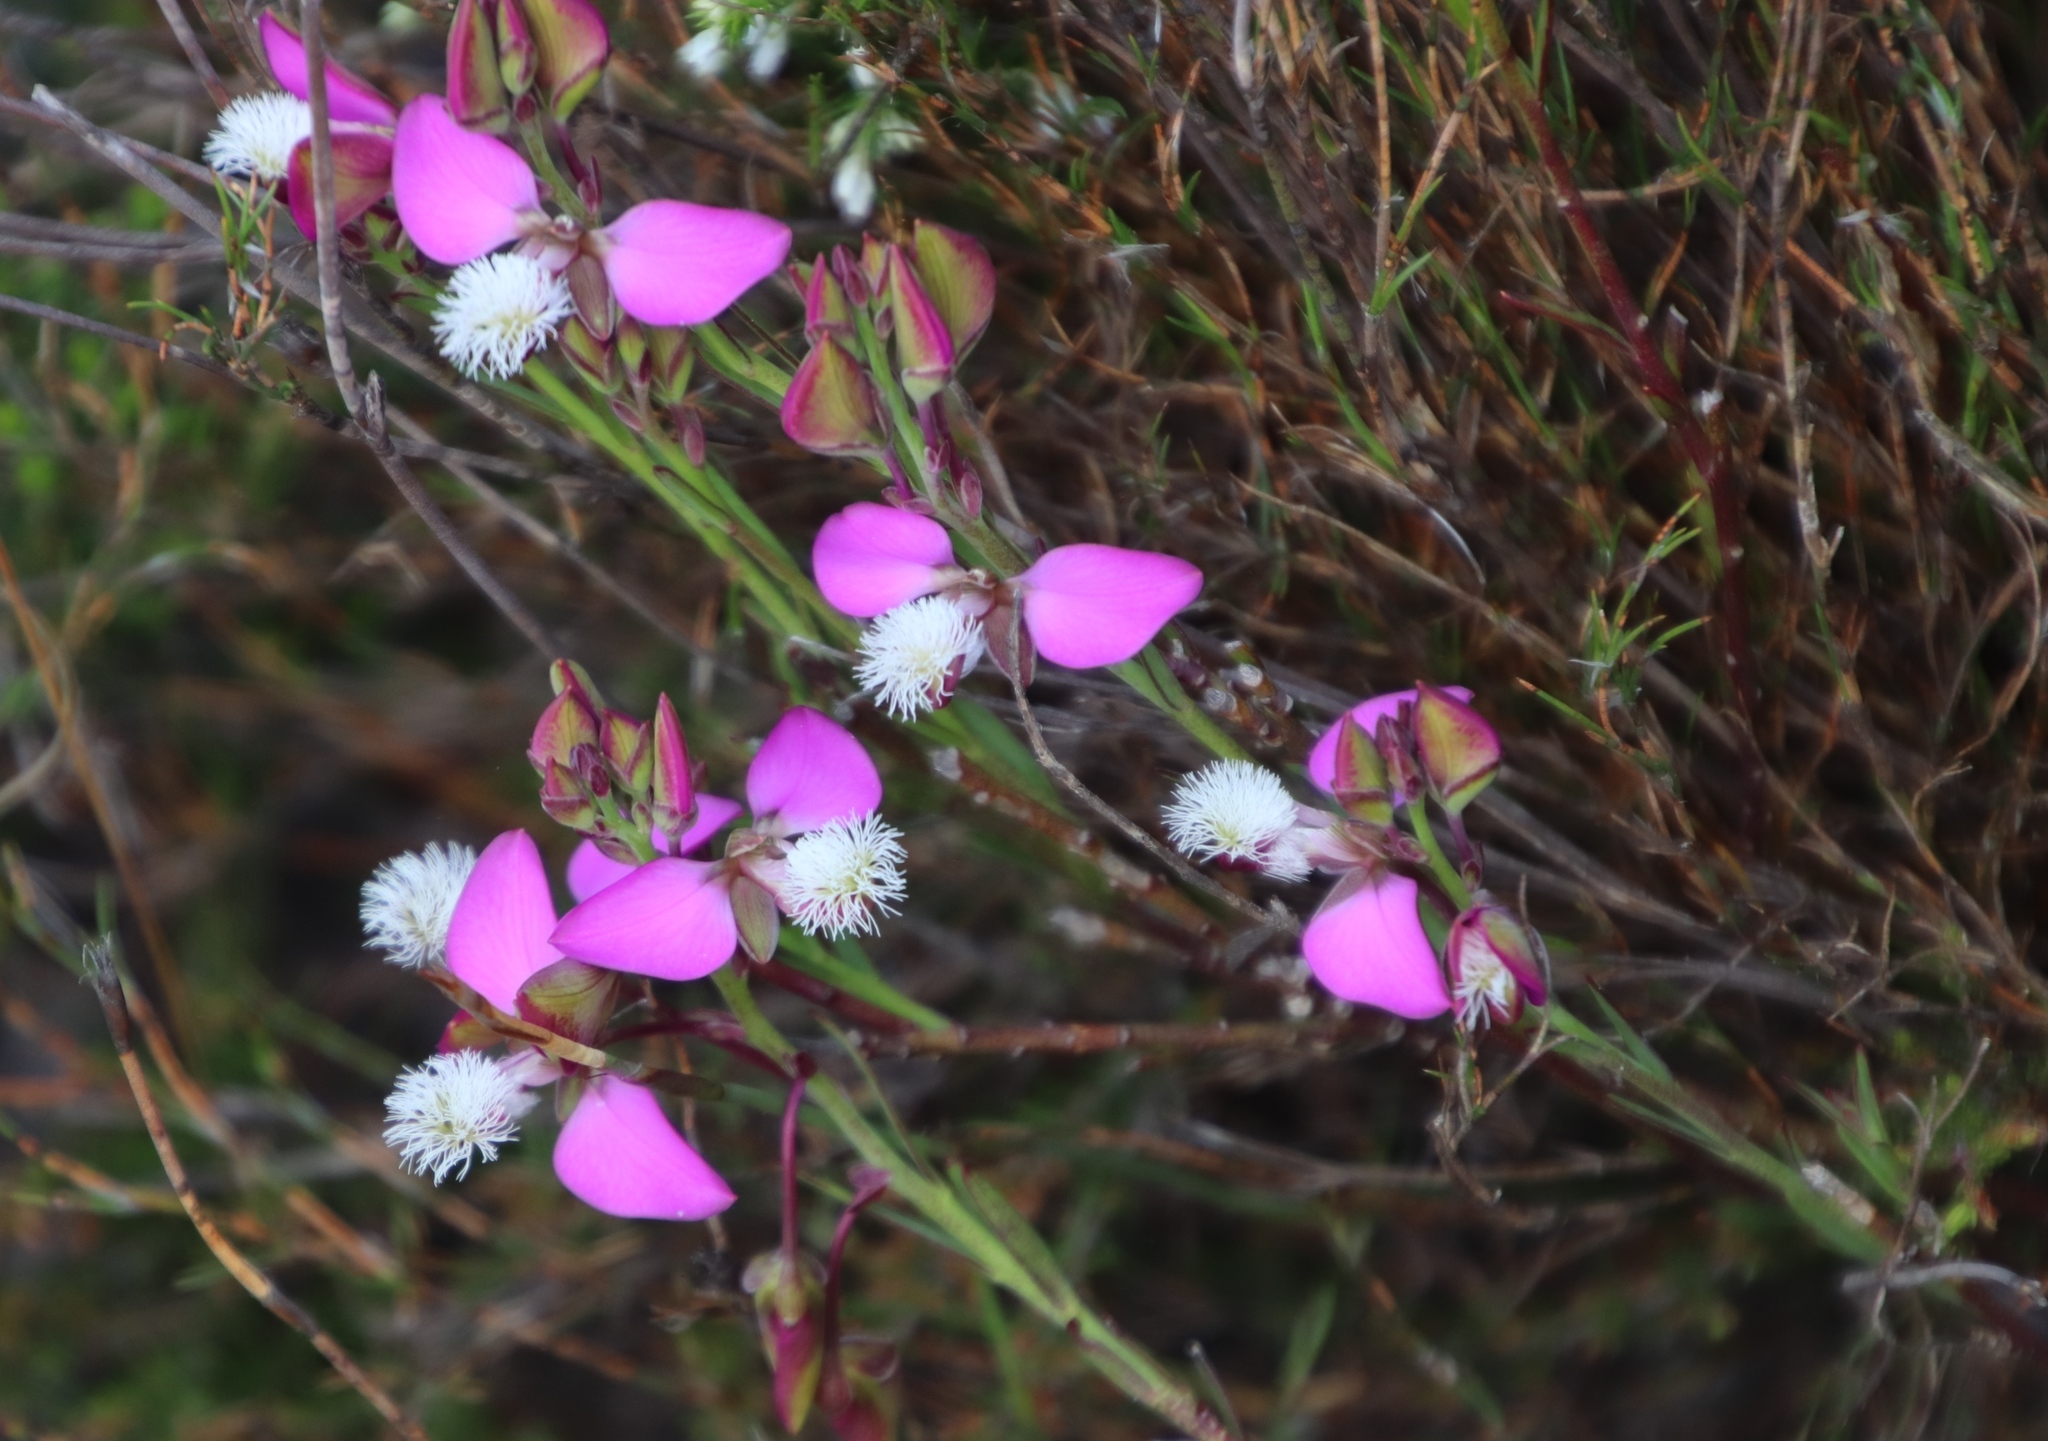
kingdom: Plantae
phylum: Tracheophyta
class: Magnoliopsida
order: Fabales
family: Polygalaceae
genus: Polygala
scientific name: Polygala bracteolata
